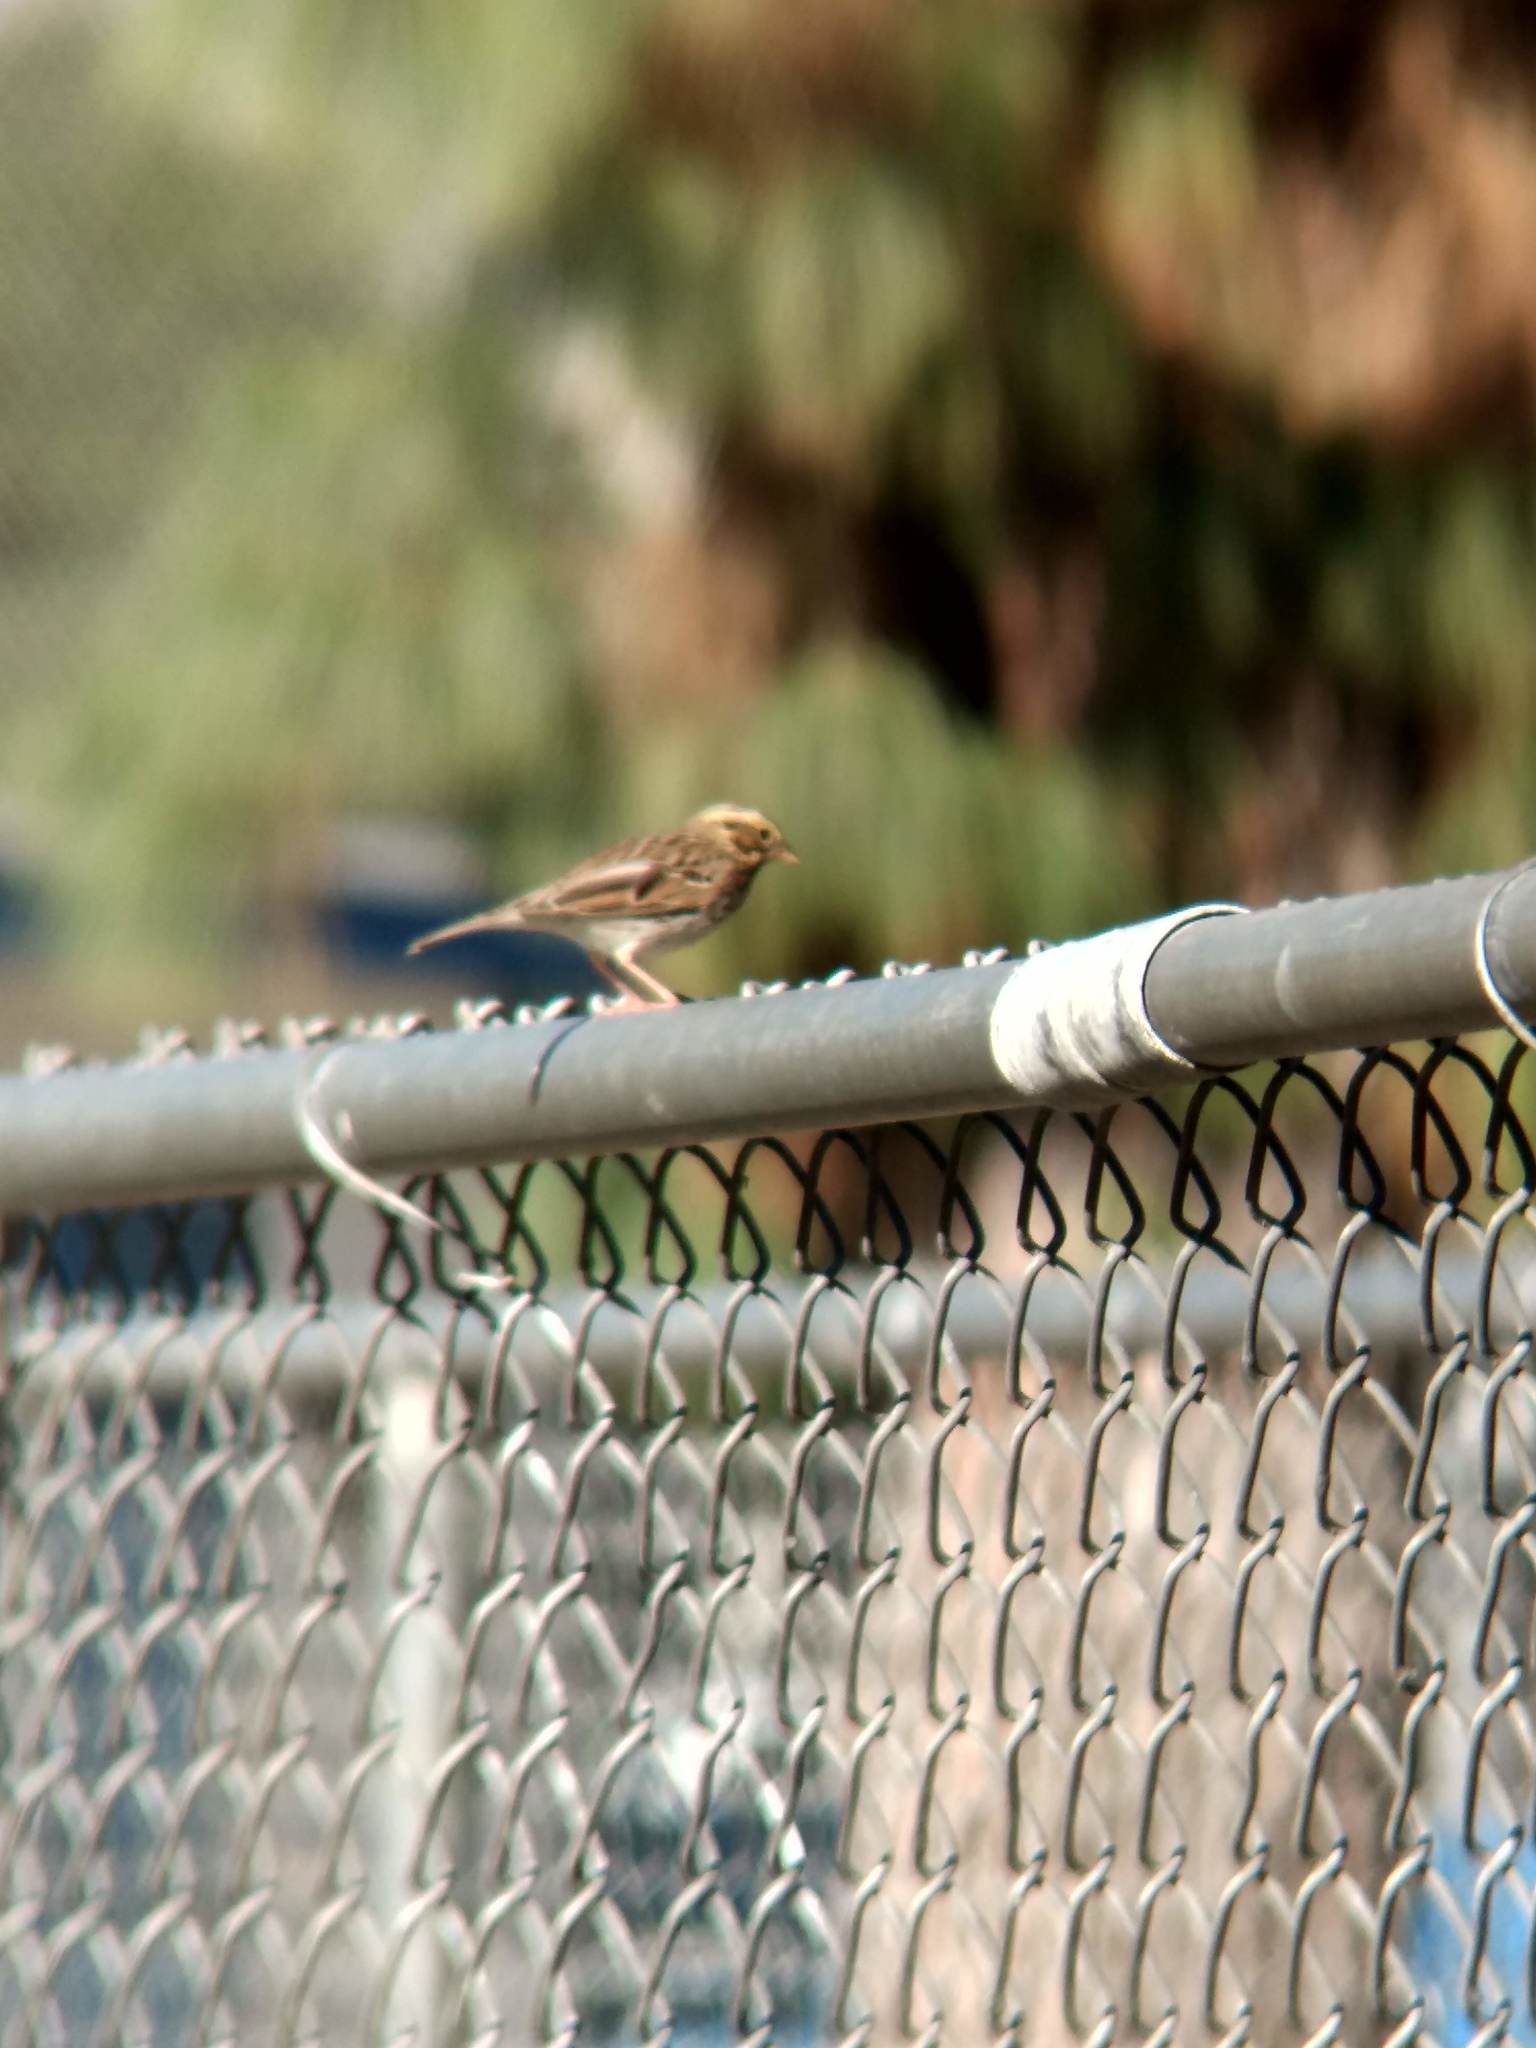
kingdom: Animalia
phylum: Chordata
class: Aves
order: Passeriformes
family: Passerellidae
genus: Passerculus
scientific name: Passerculus sandwichensis
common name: Savannah sparrow
